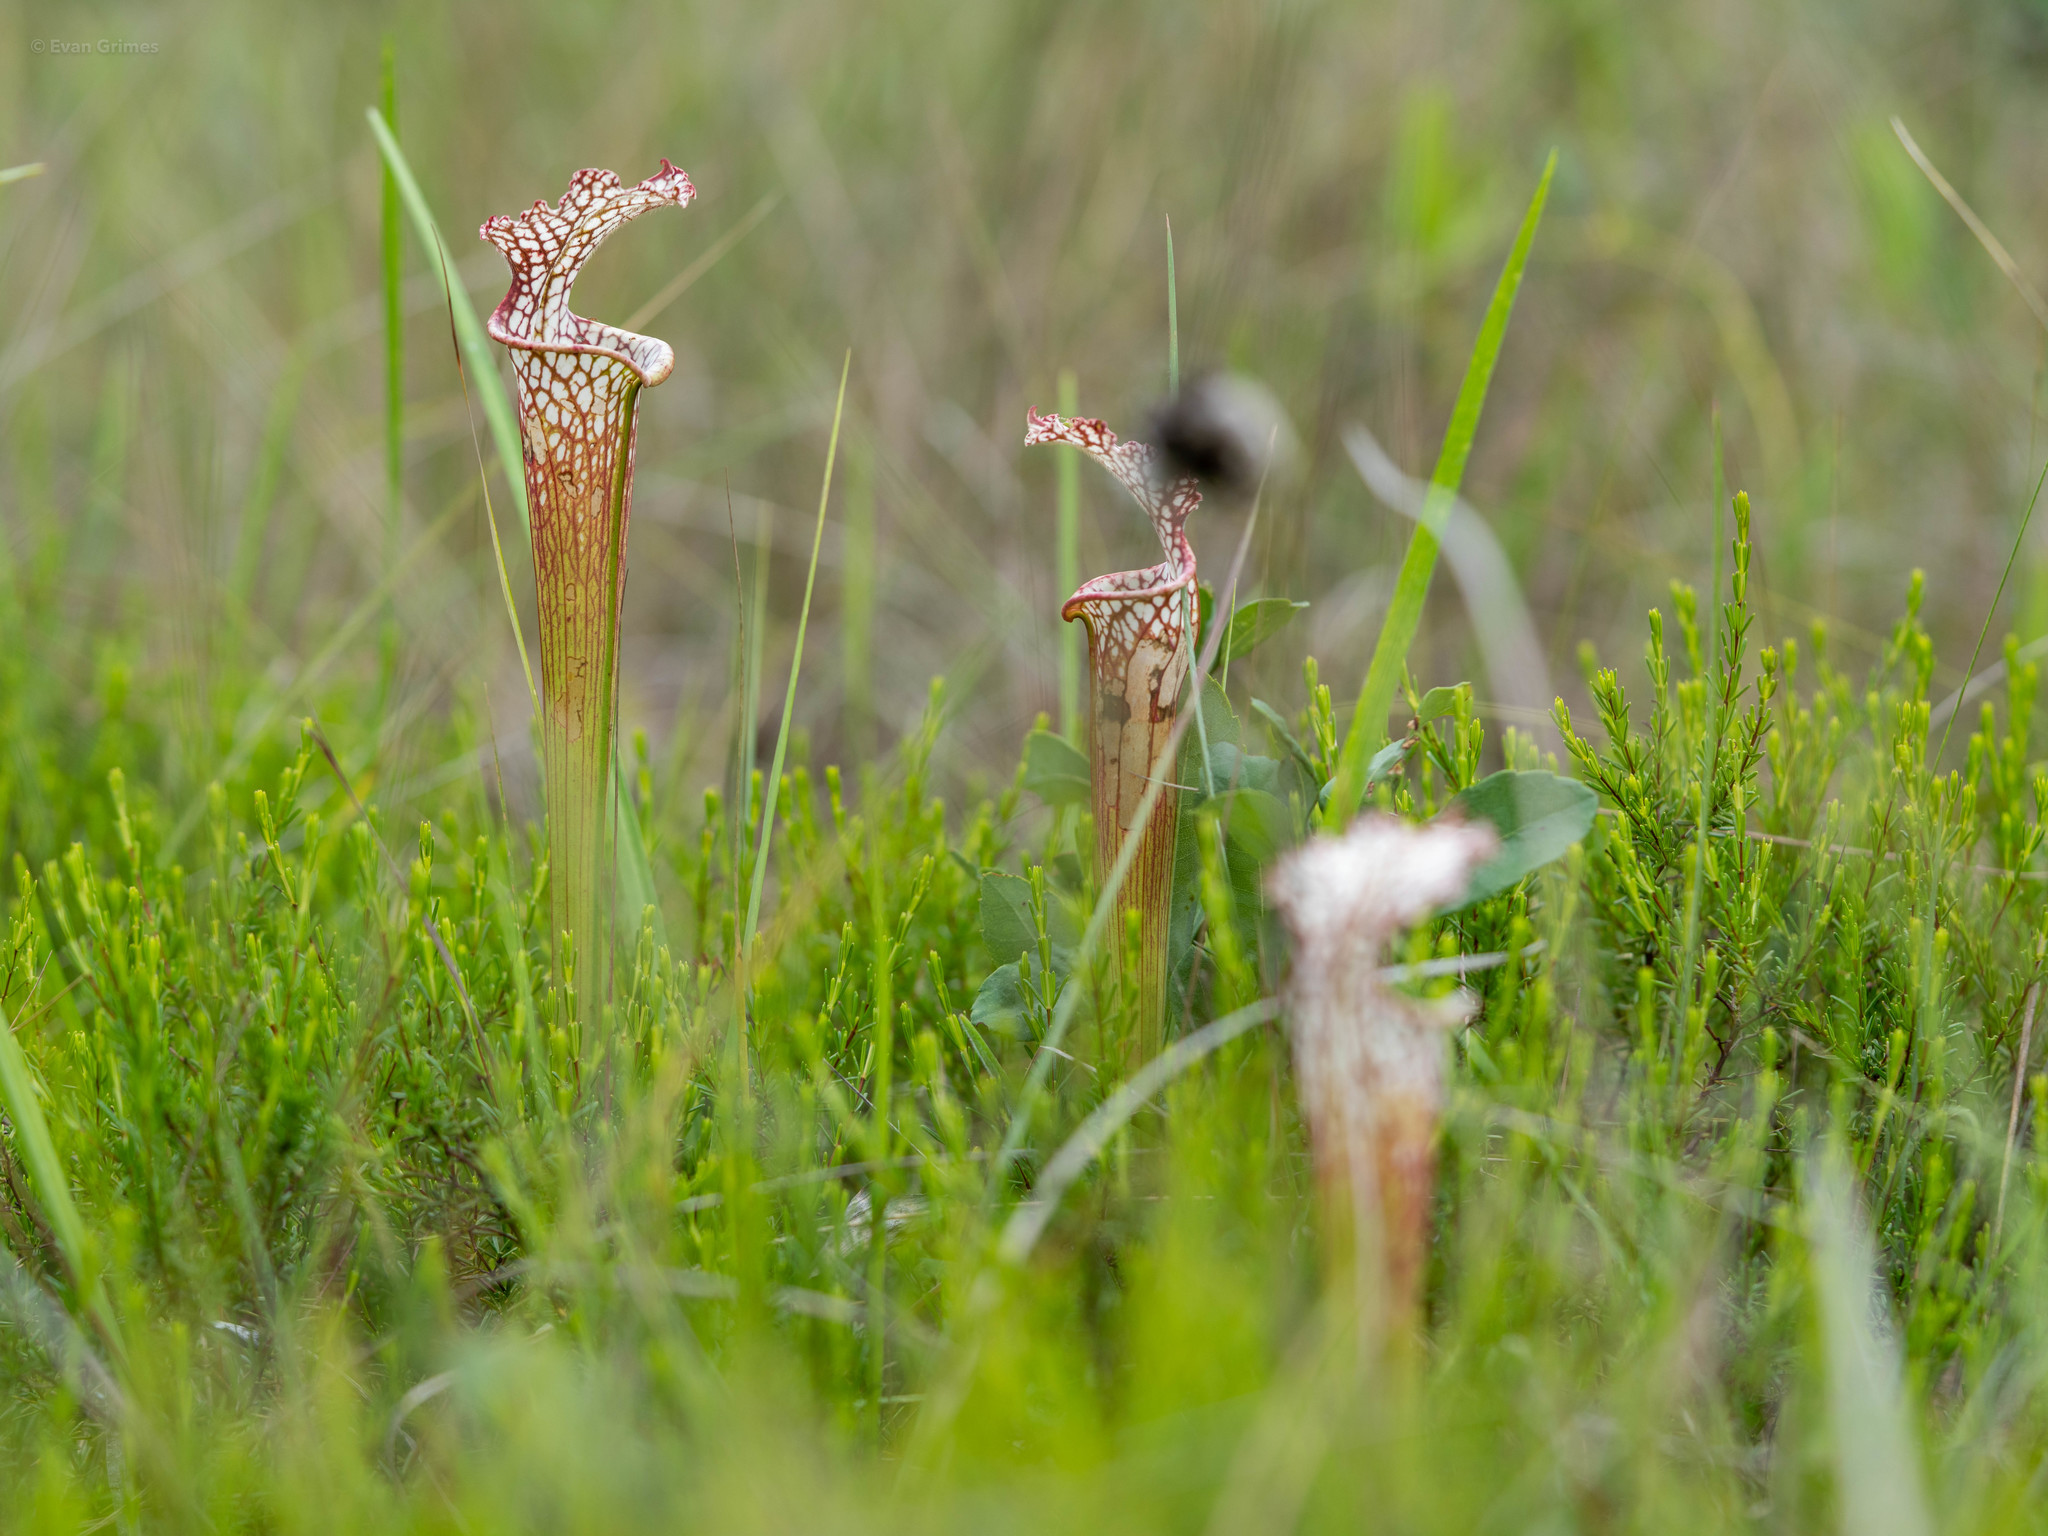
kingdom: Plantae
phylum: Tracheophyta
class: Magnoliopsida
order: Ericales
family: Sarraceniaceae
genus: Sarracenia
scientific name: Sarracenia leucophylla
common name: Purple trumpetleaf
